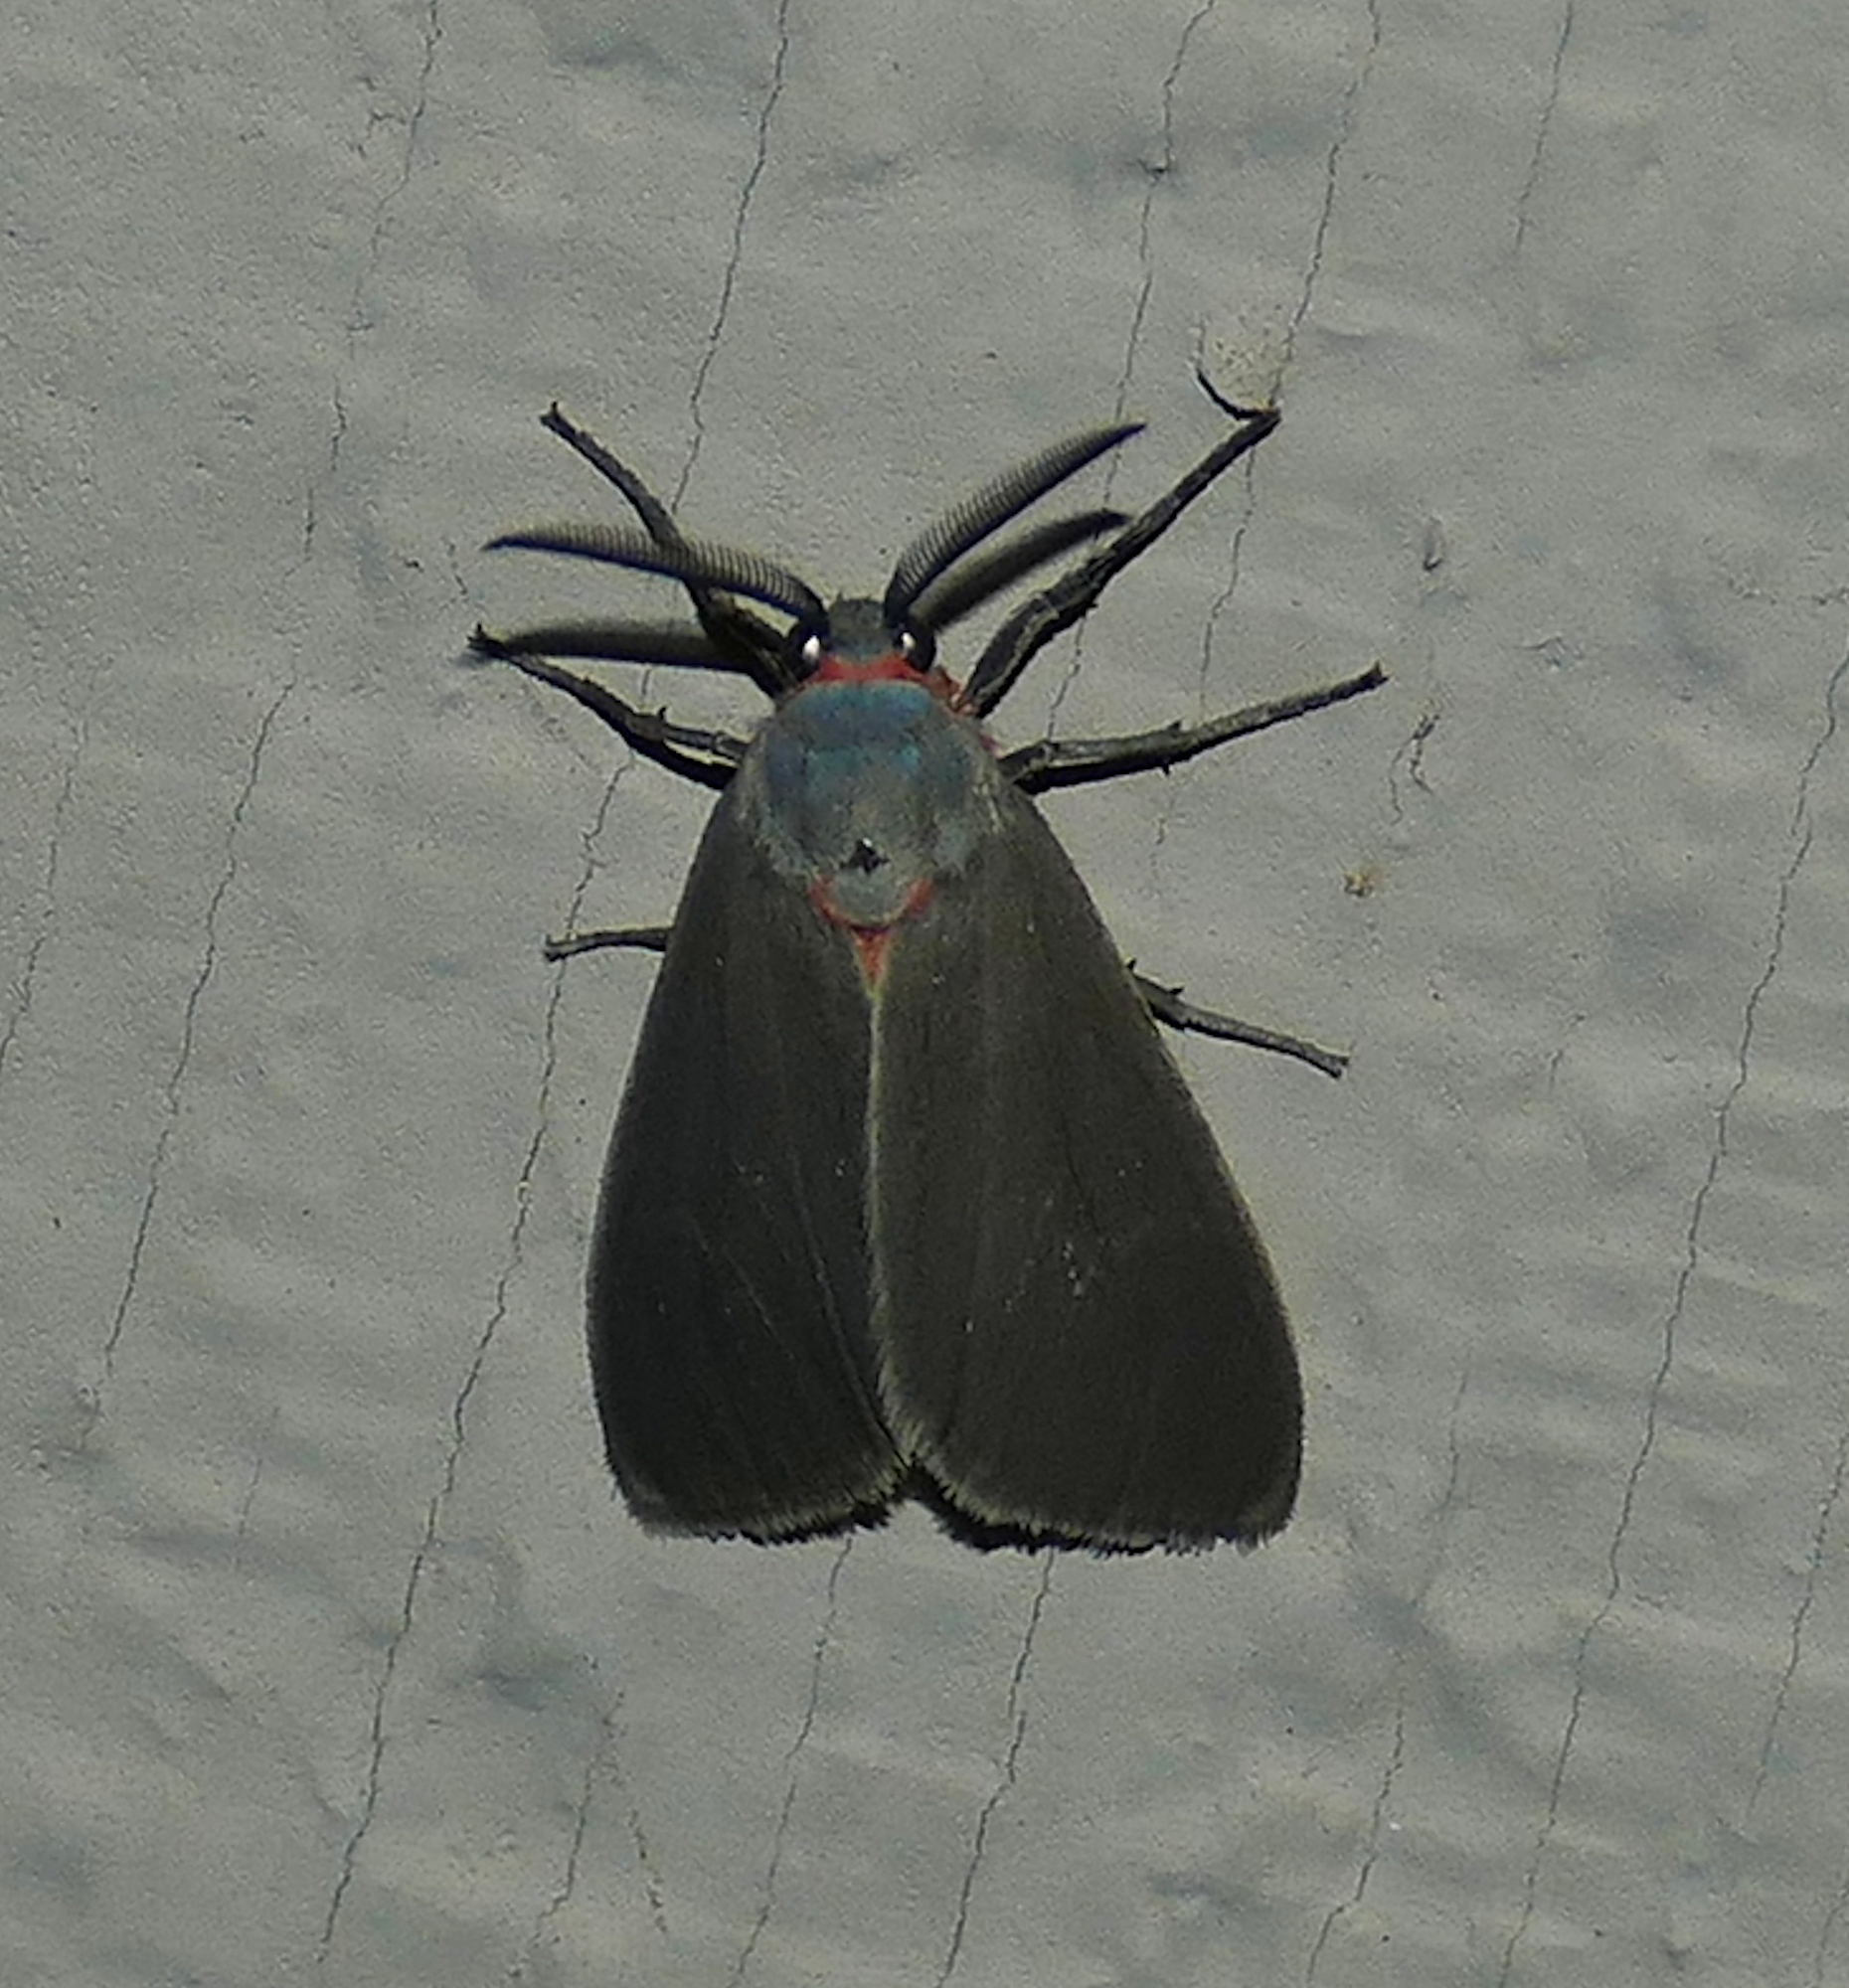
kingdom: Animalia
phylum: Arthropoda
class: Insecta
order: Lepidoptera
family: Erebidae
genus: Pygarctia
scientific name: Pygarctia murina
